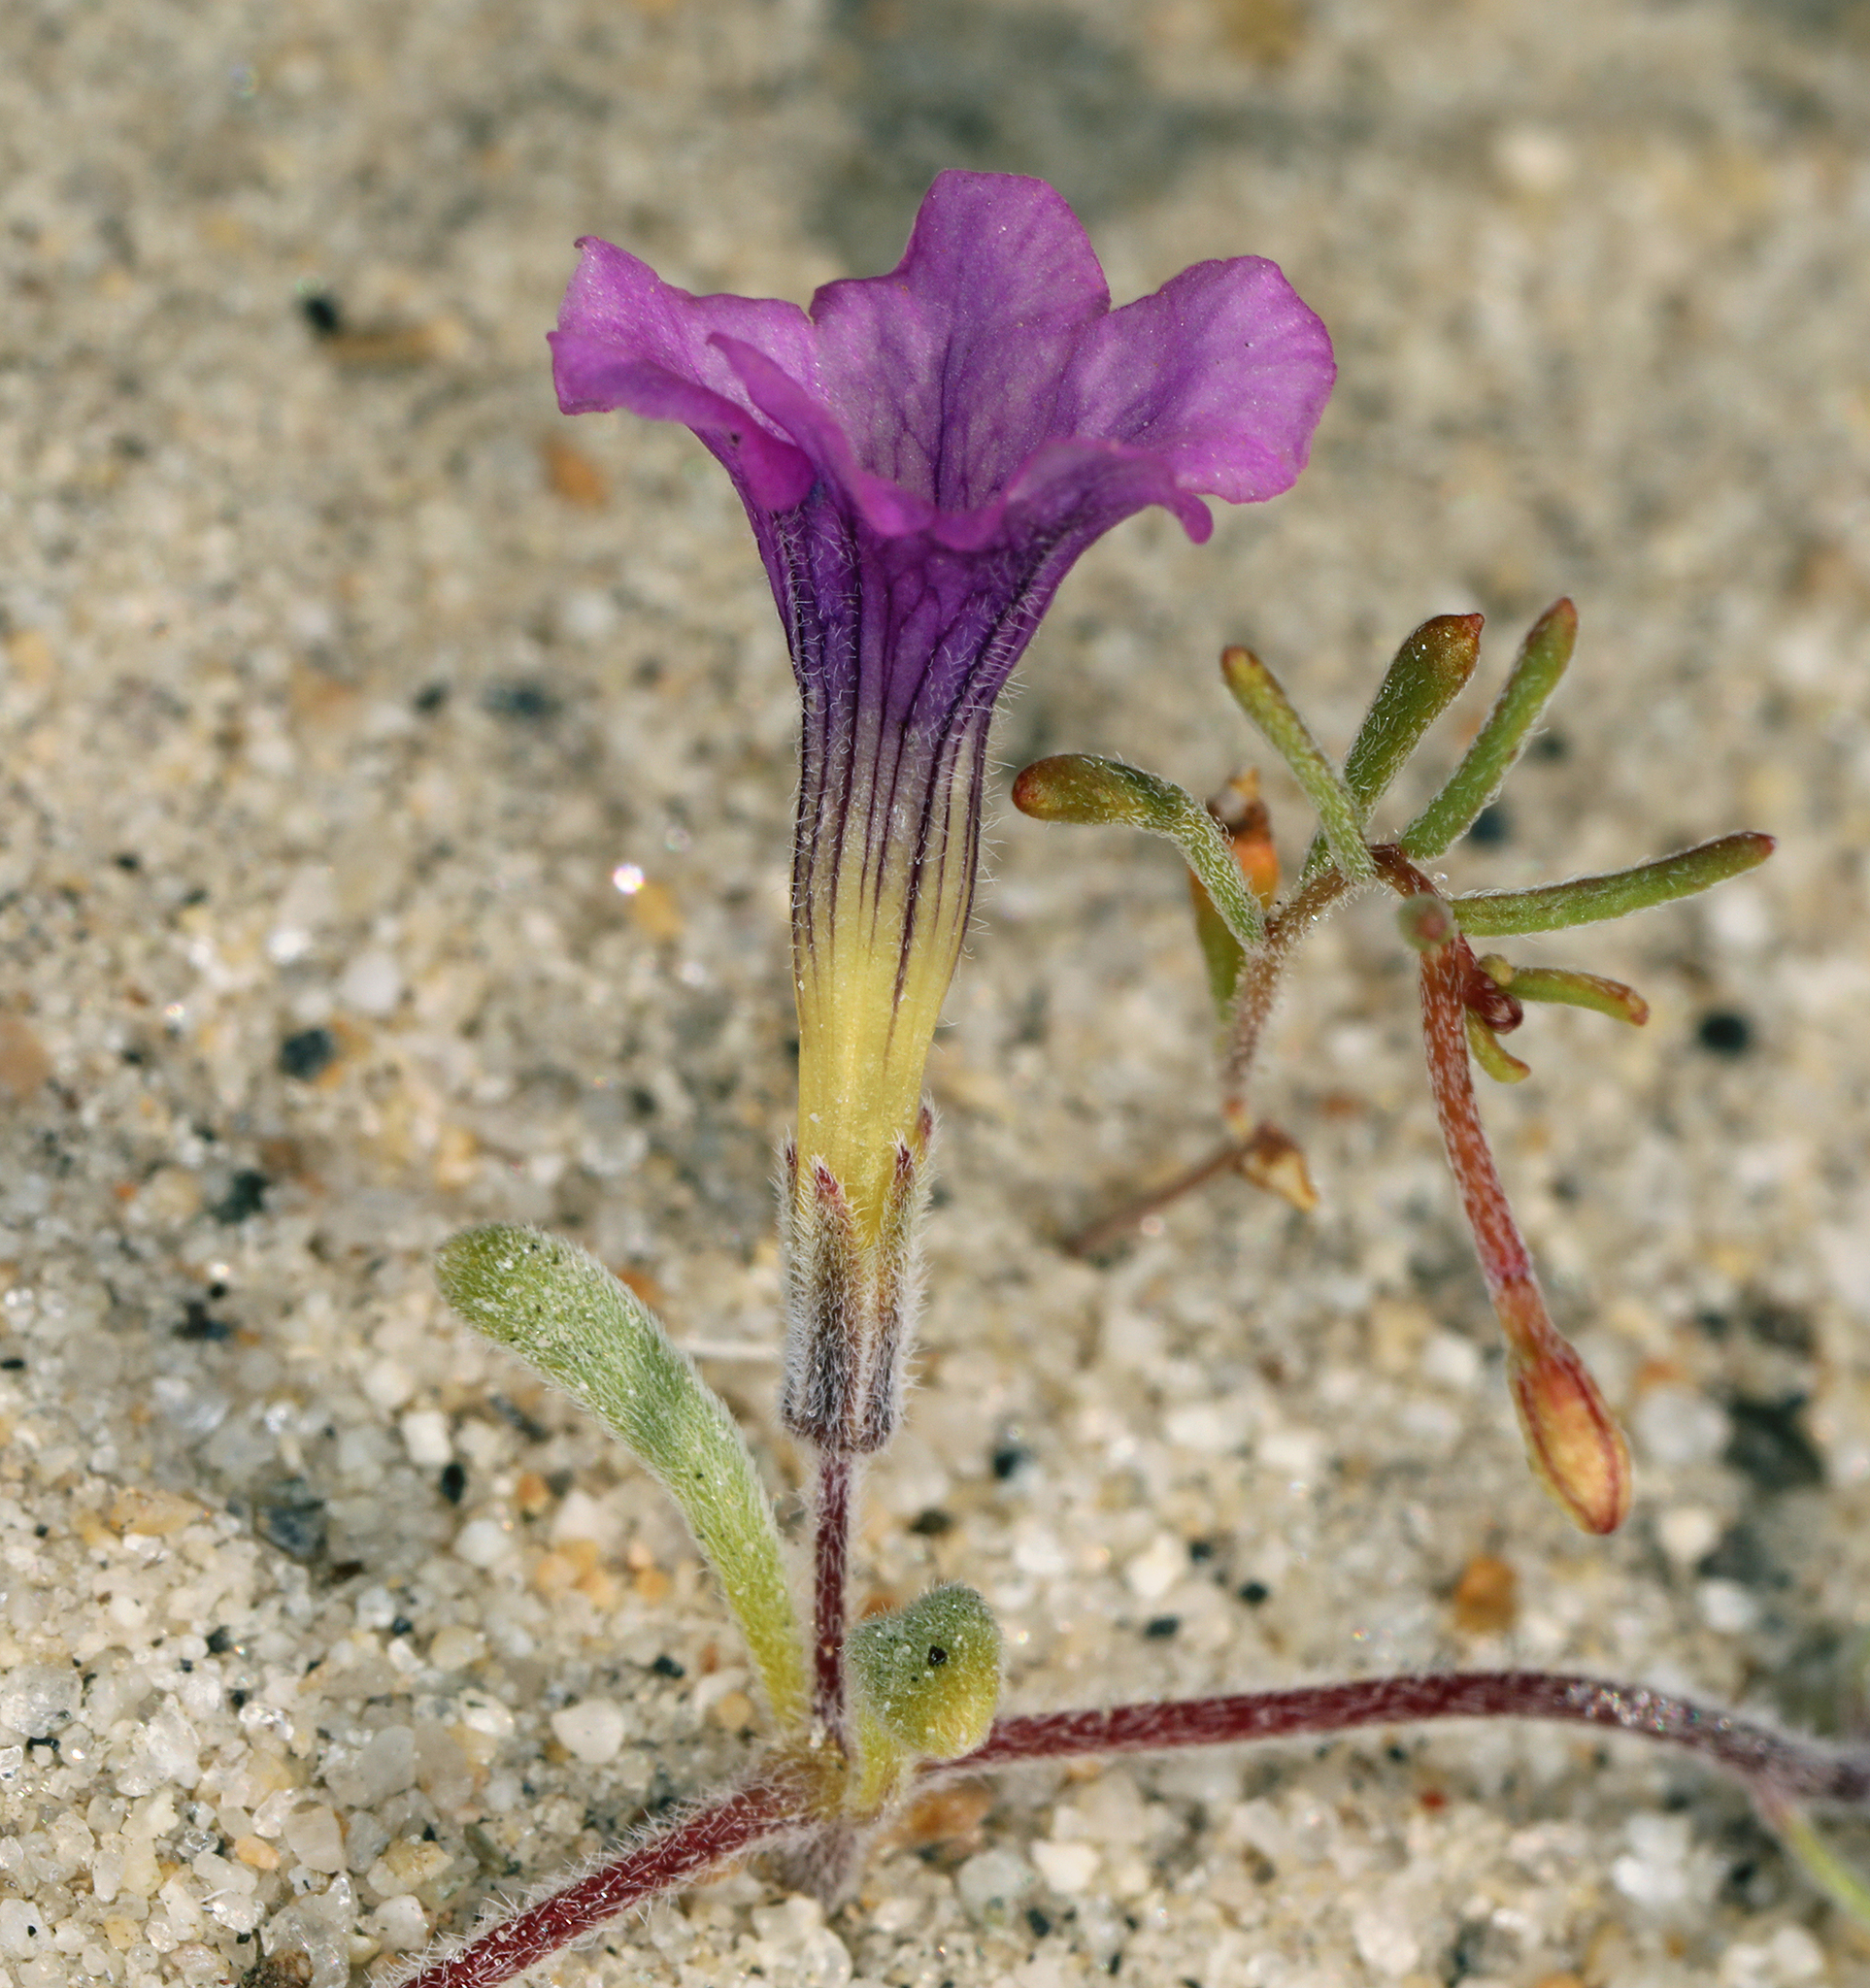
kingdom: Plantae
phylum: Tracheophyta
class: Magnoliopsida
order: Boraginales
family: Namaceae
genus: Nama
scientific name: Nama demissa
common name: Leafy nama
